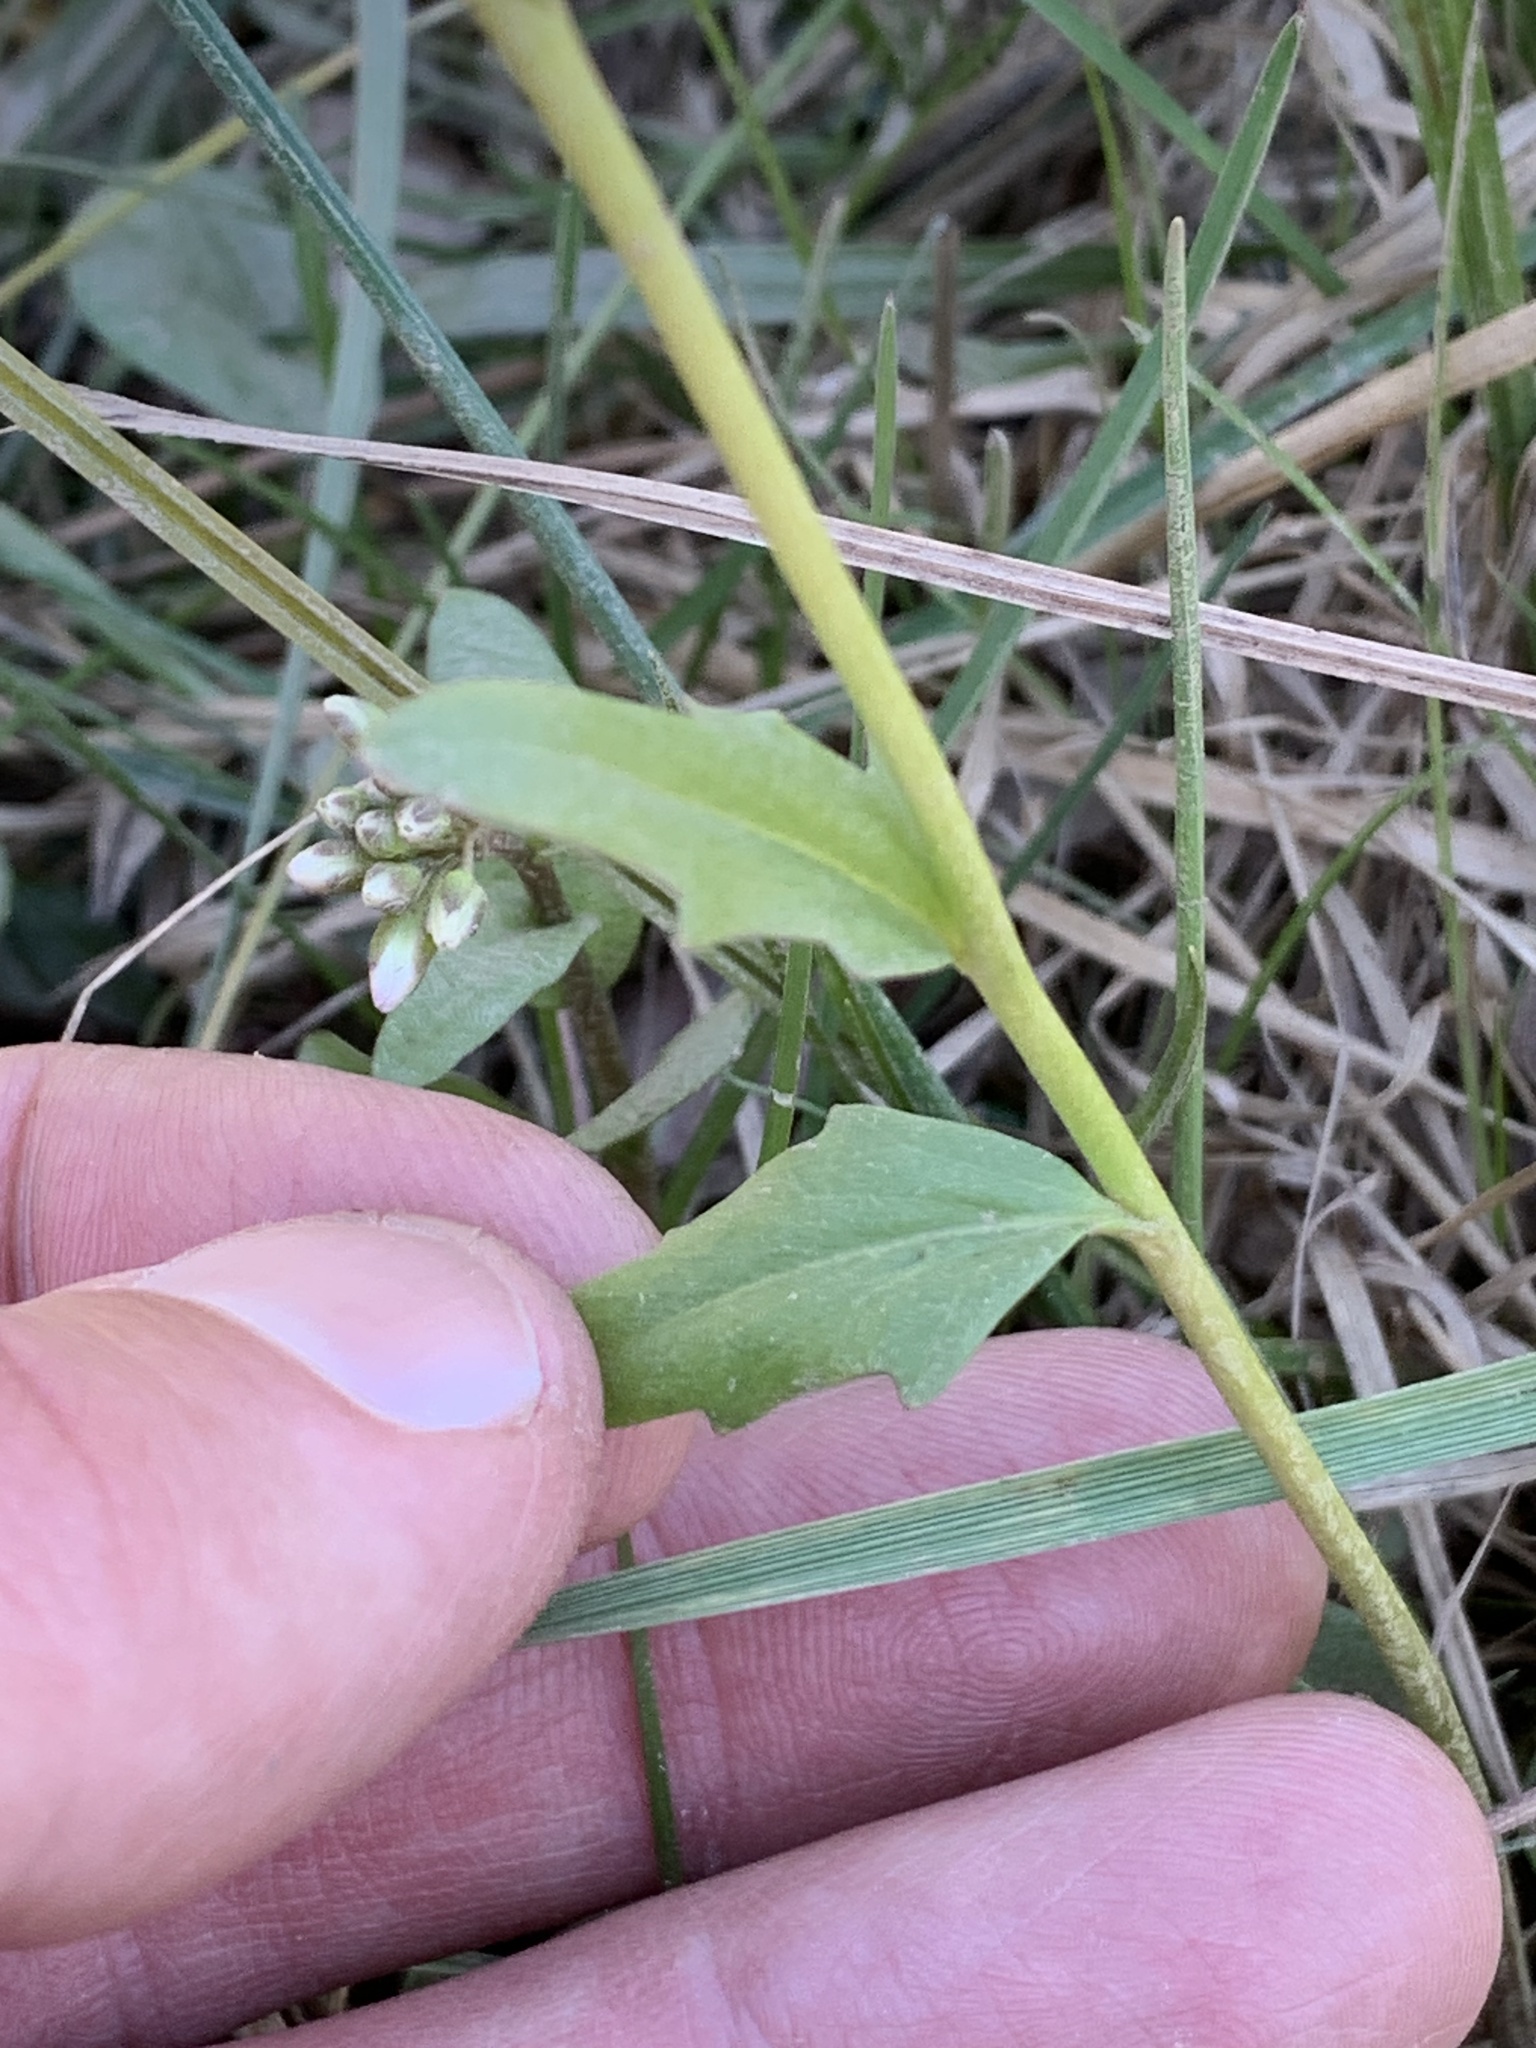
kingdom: Plantae
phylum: Tracheophyta
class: Magnoliopsida
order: Brassicales
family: Brassicaceae
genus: Cardamine
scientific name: Cardamine bulbosa
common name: Spring cress
